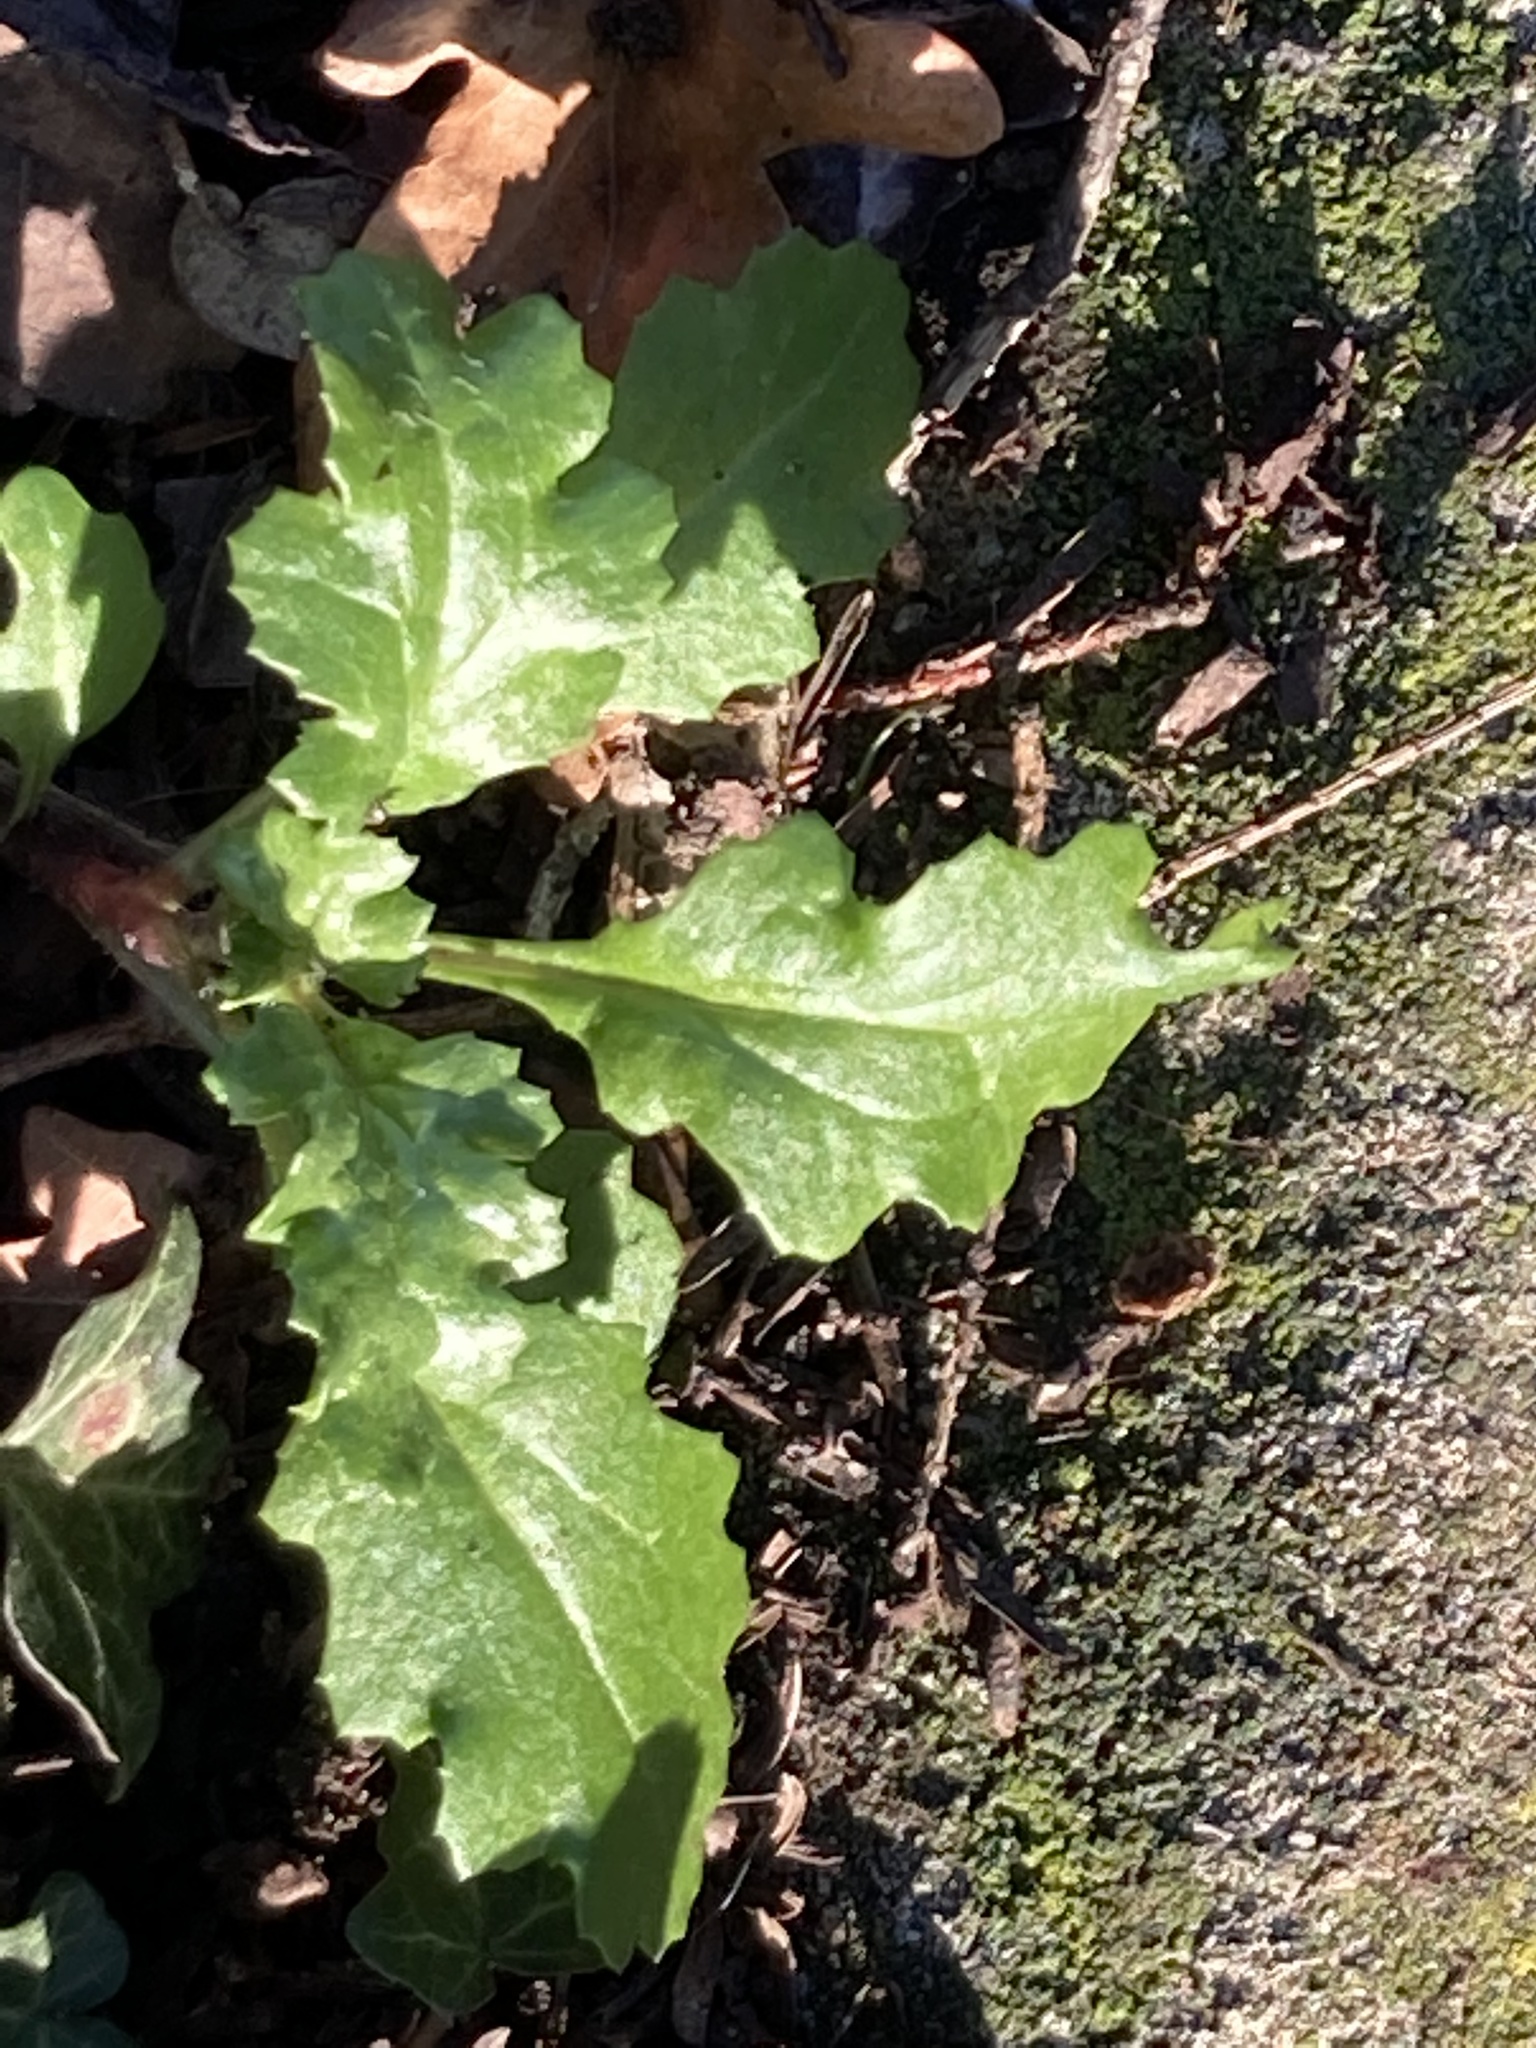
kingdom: Plantae
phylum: Tracheophyta
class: Magnoliopsida
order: Asterales
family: Asteraceae
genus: Senecio
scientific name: Senecio vulgaris
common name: Old-man-in-the-spring
